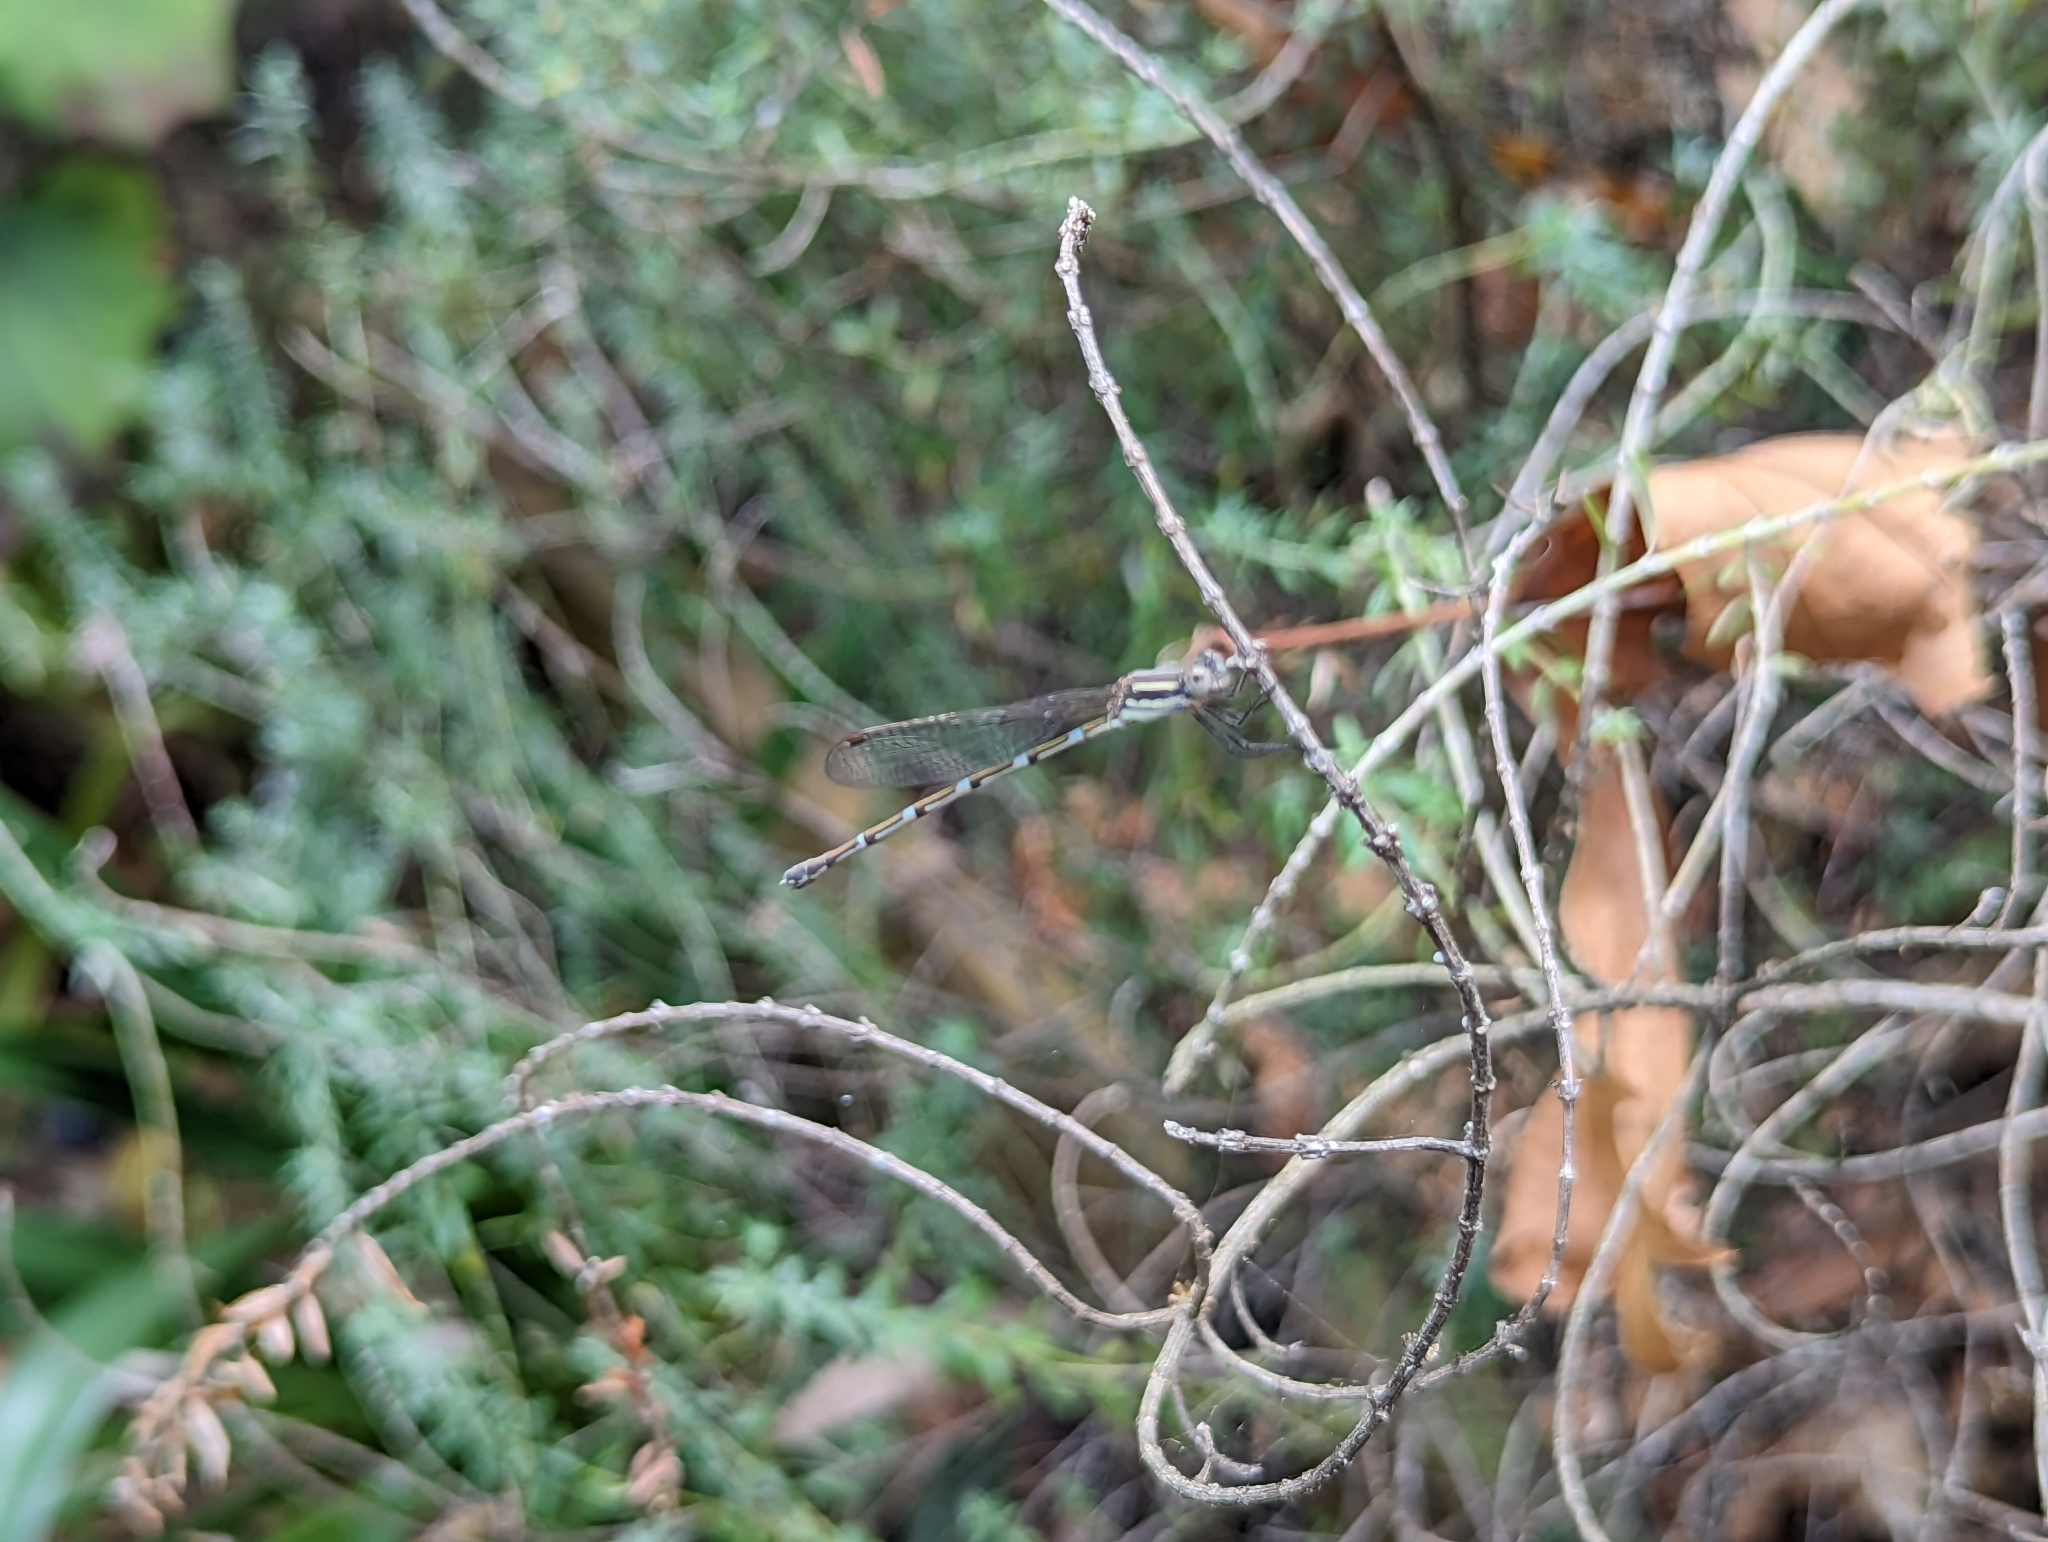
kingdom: Animalia
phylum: Arthropoda
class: Insecta
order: Odonata
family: Lestidae
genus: Austrolestes
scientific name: Austrolestes leda
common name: Wandering ringtail
